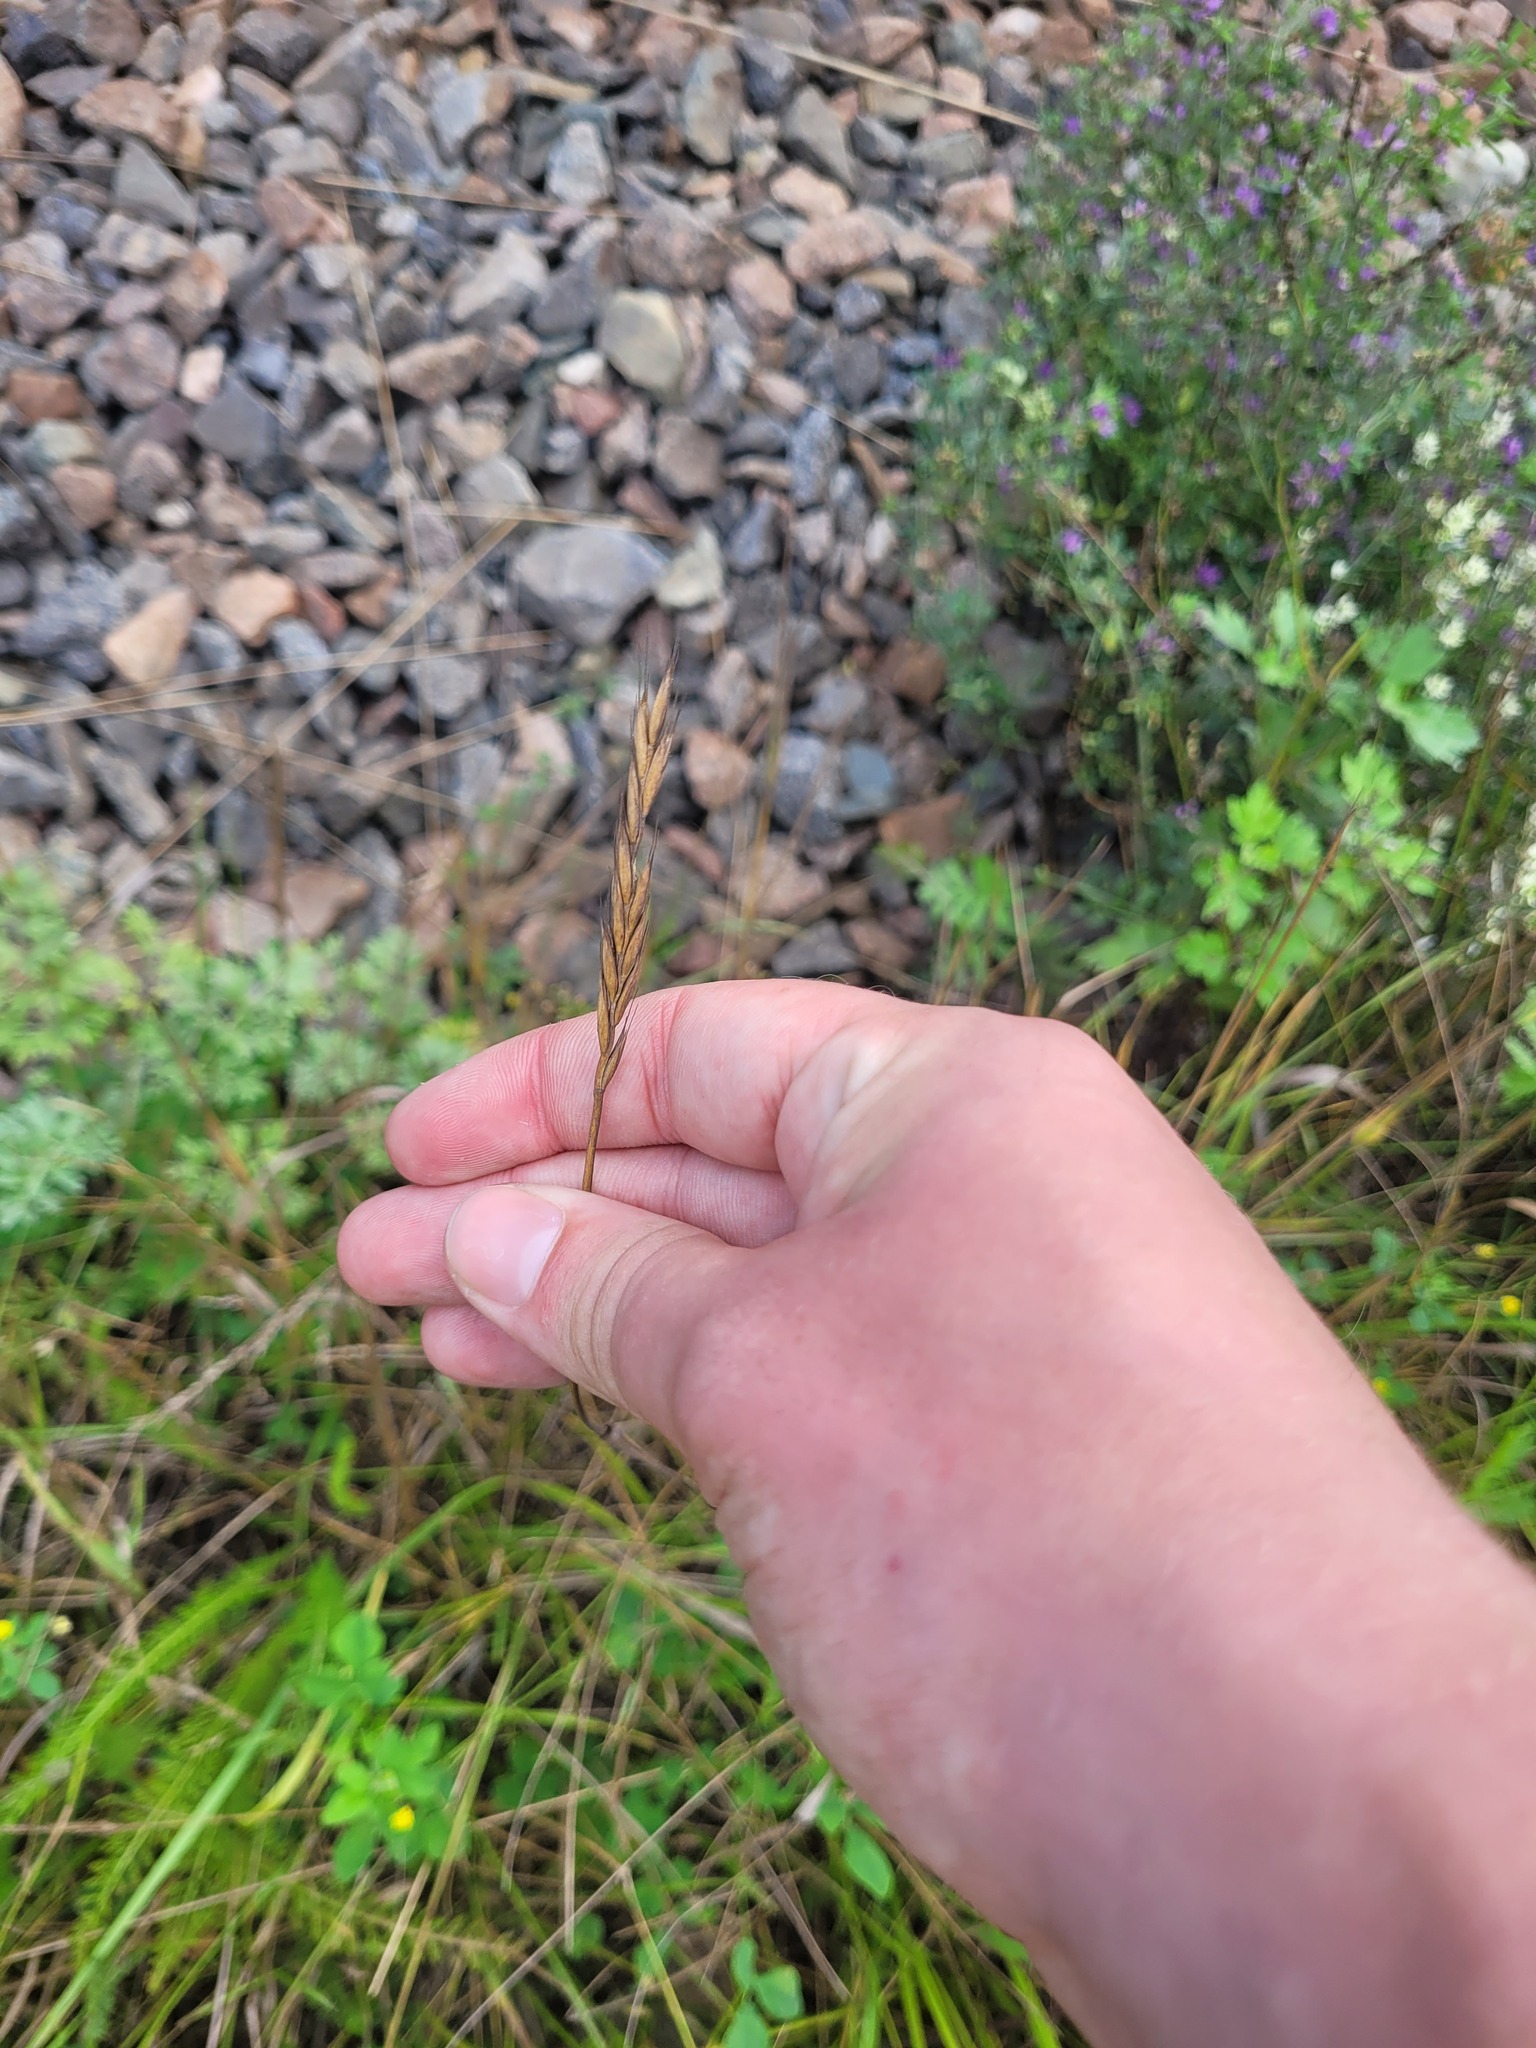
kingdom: Plantae
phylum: Tracheophyta
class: Liliopsida
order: Poales
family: Poaceae
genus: Elymus
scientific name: Elymus repens
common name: Quackgrass
